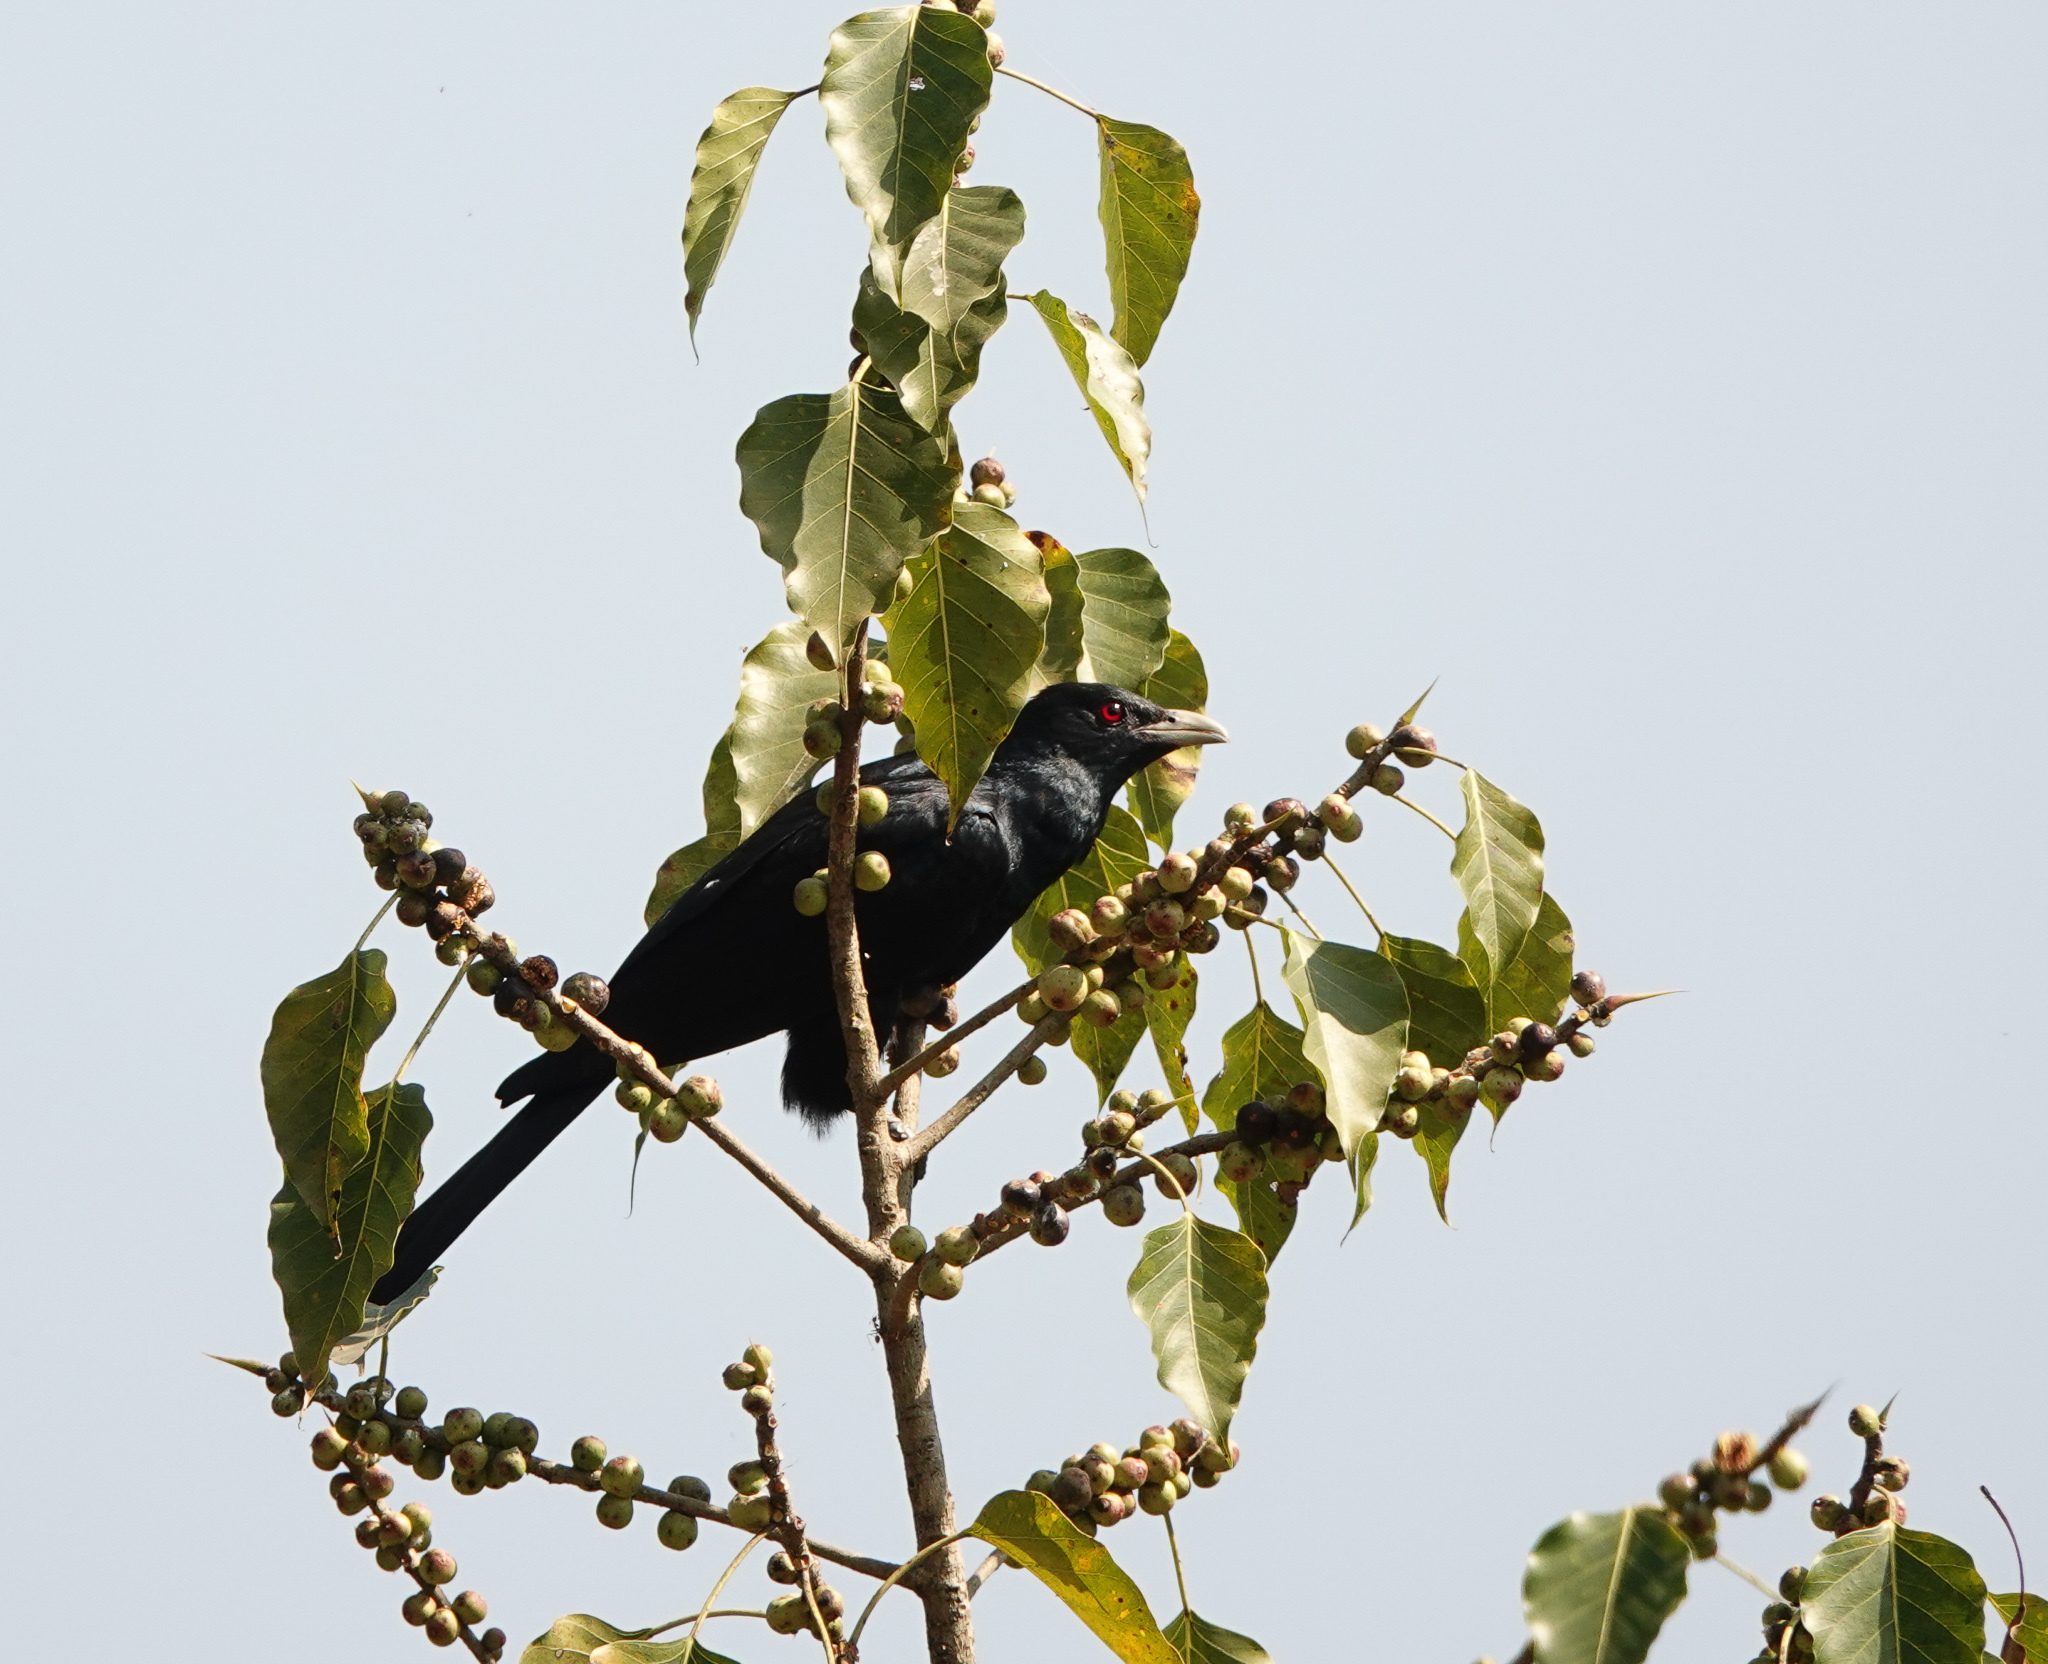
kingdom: Animalia
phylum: Chordata
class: Aves
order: Cuculiformes
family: Cuculidae
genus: Eudynamys
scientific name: Eudynamys scolopaceus
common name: Asian koel
